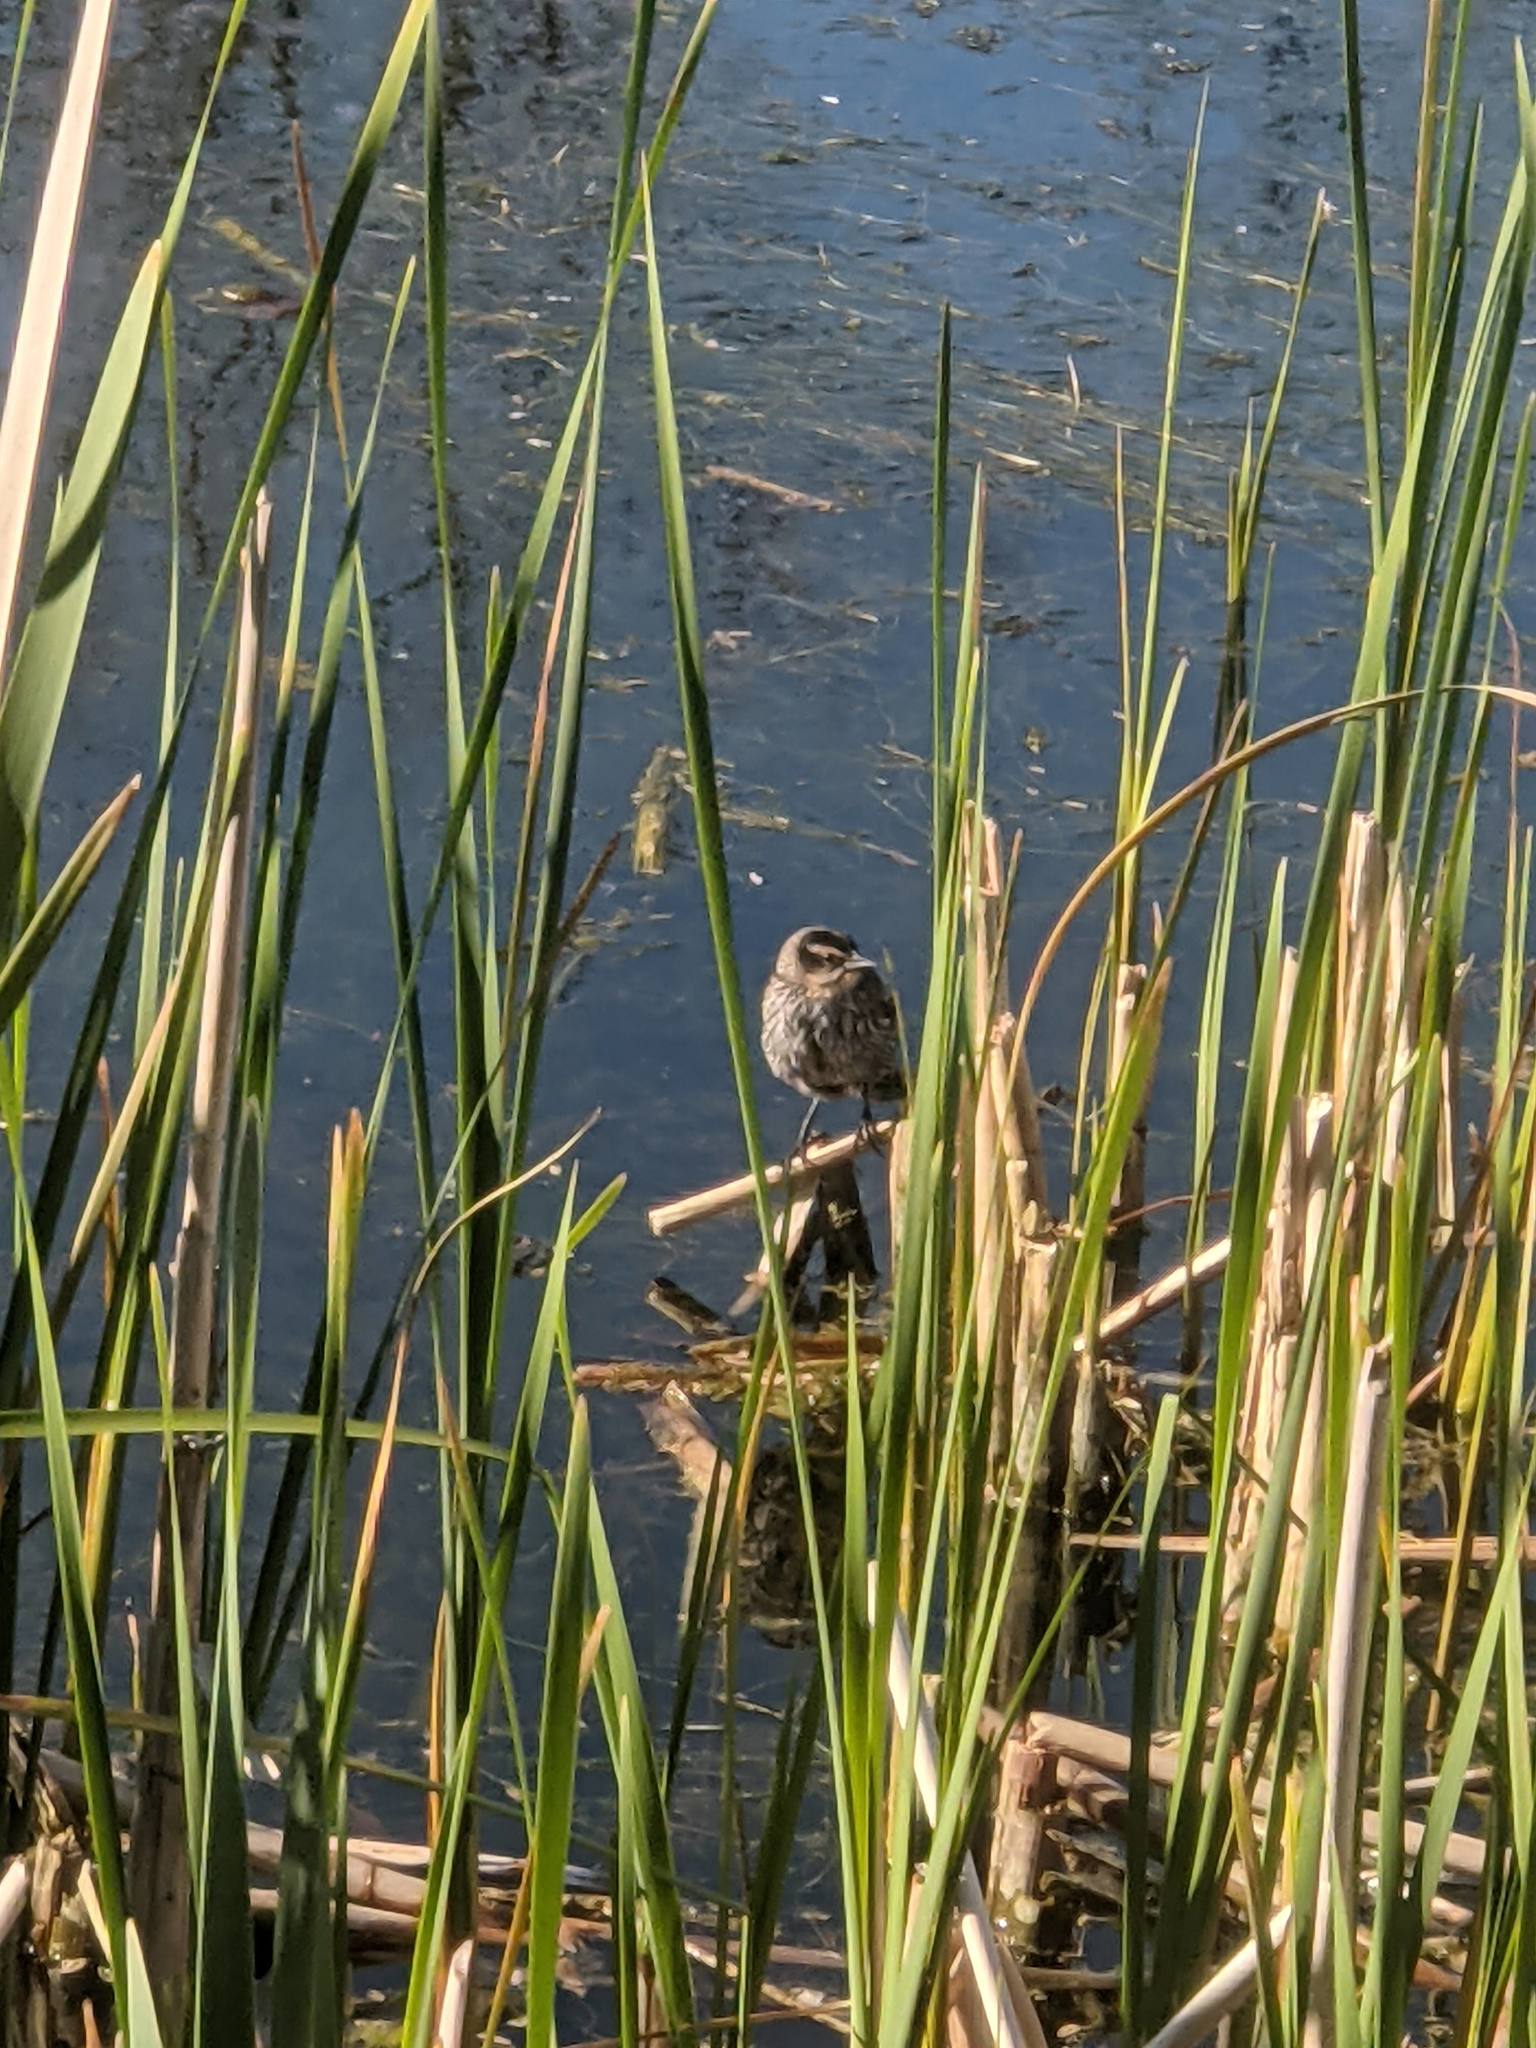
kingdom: Animalia
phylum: Chordata
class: Aves
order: Passeriformes
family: Icteridae
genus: Agelaius
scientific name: Agelaius phoeniceus
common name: Red-winged blackbird
